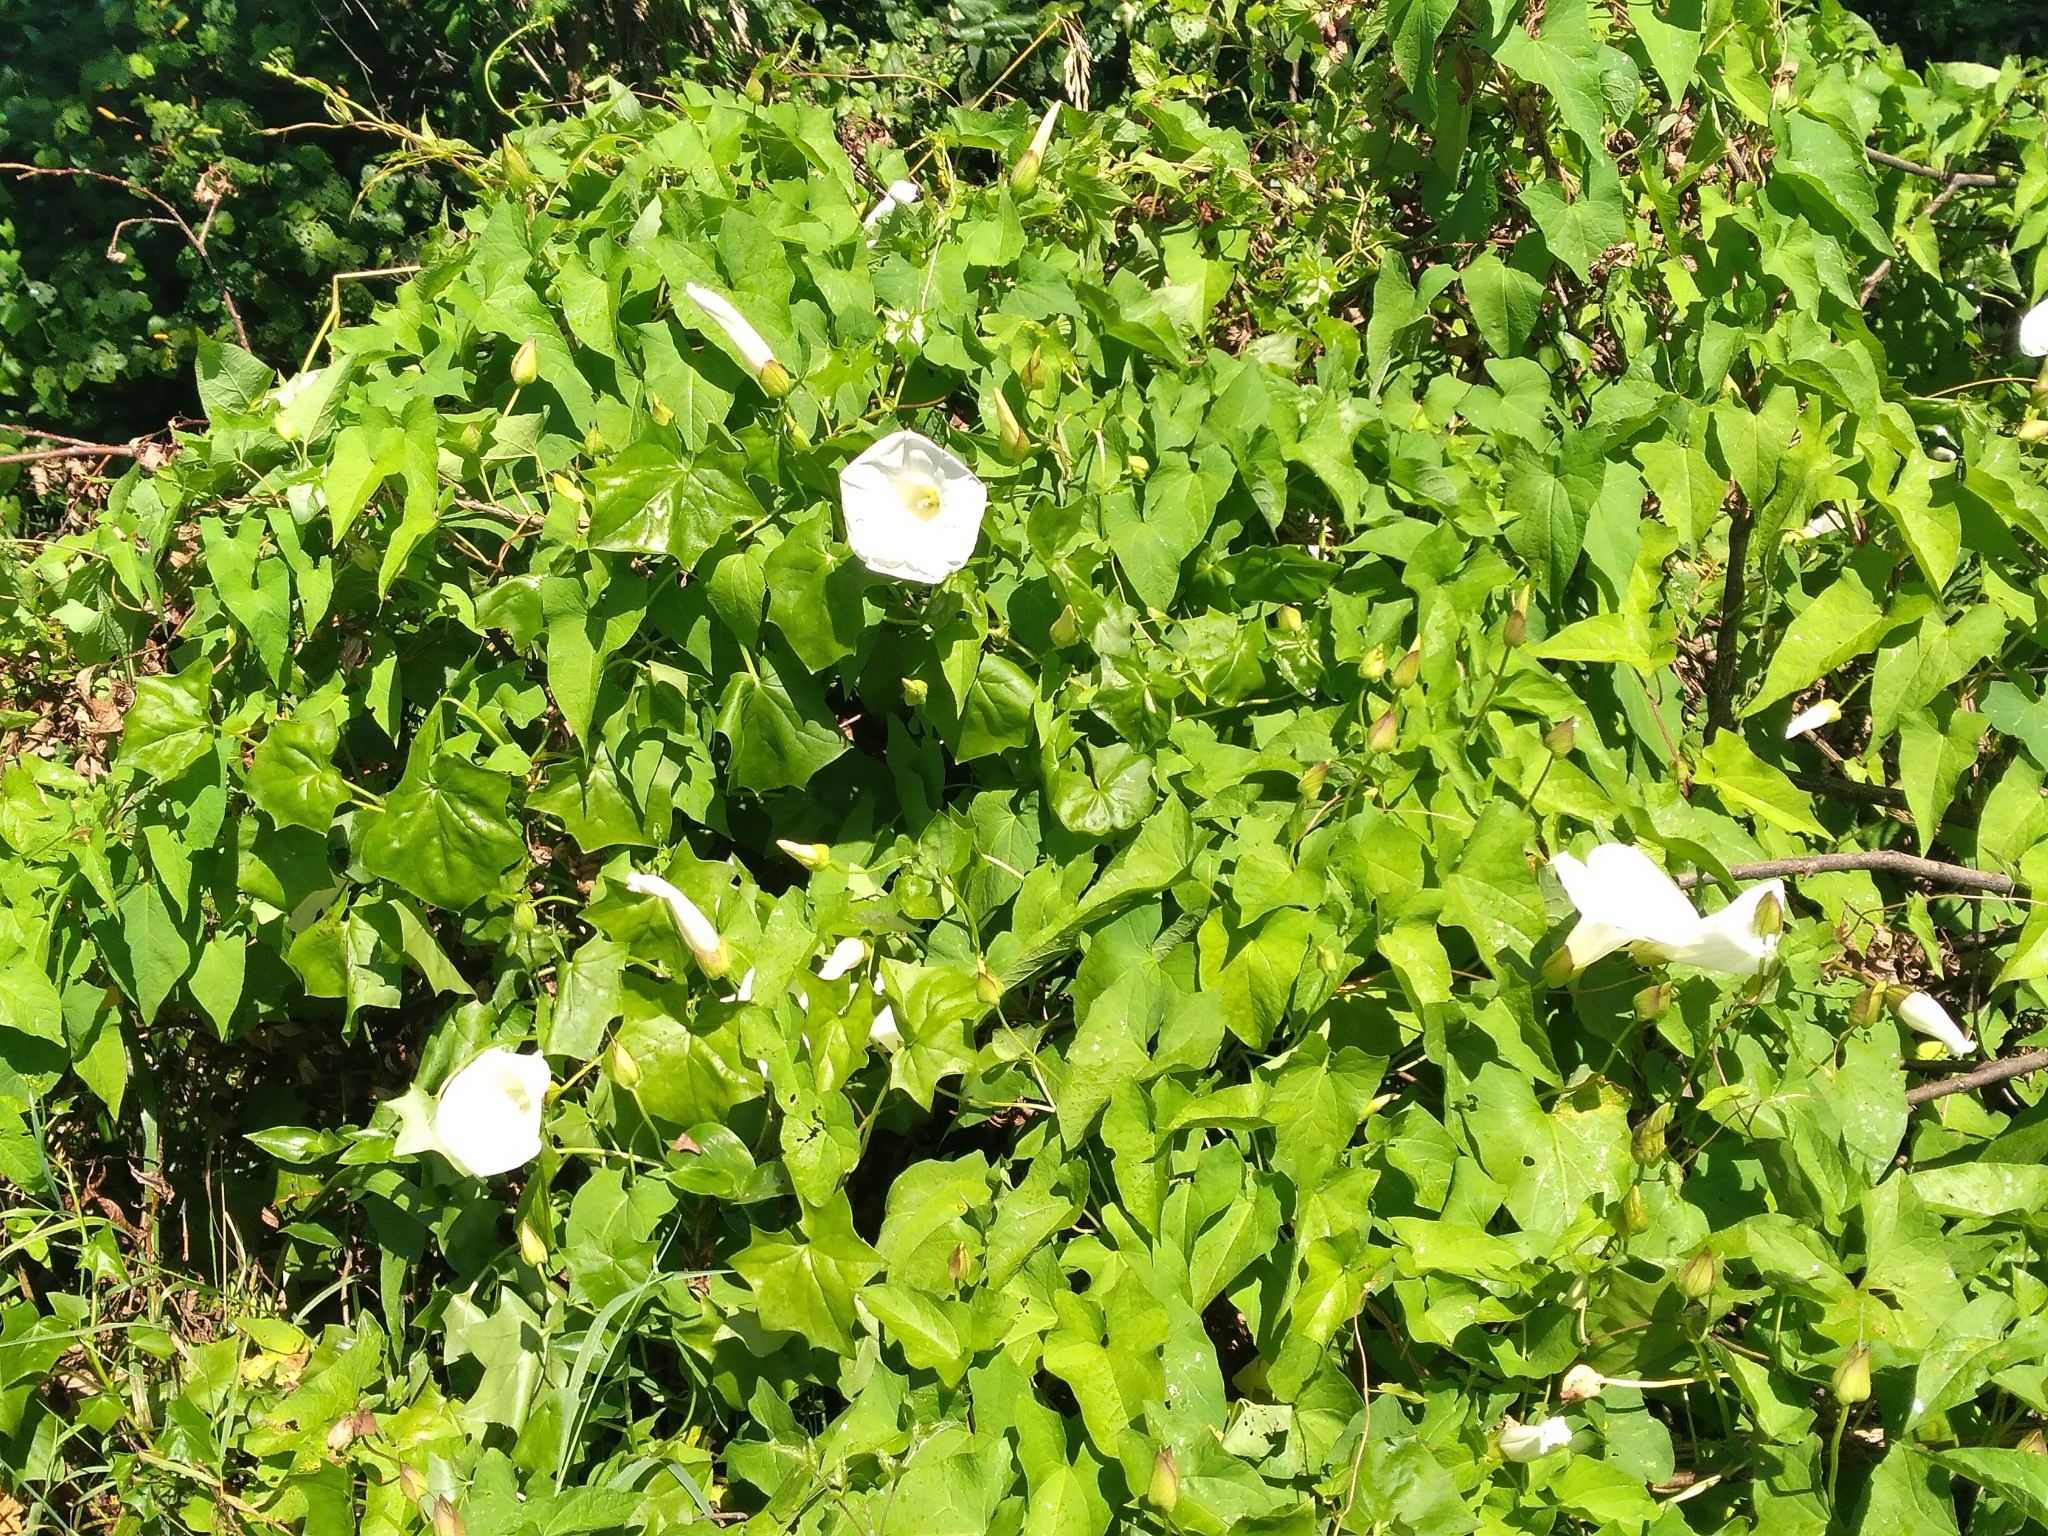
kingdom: Plantae
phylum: Tracheophyta
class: Magnoliopsida
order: Solanales
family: Convolvulaceae
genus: Calystegia
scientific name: Calystegia silvatica
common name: Large bindweed
